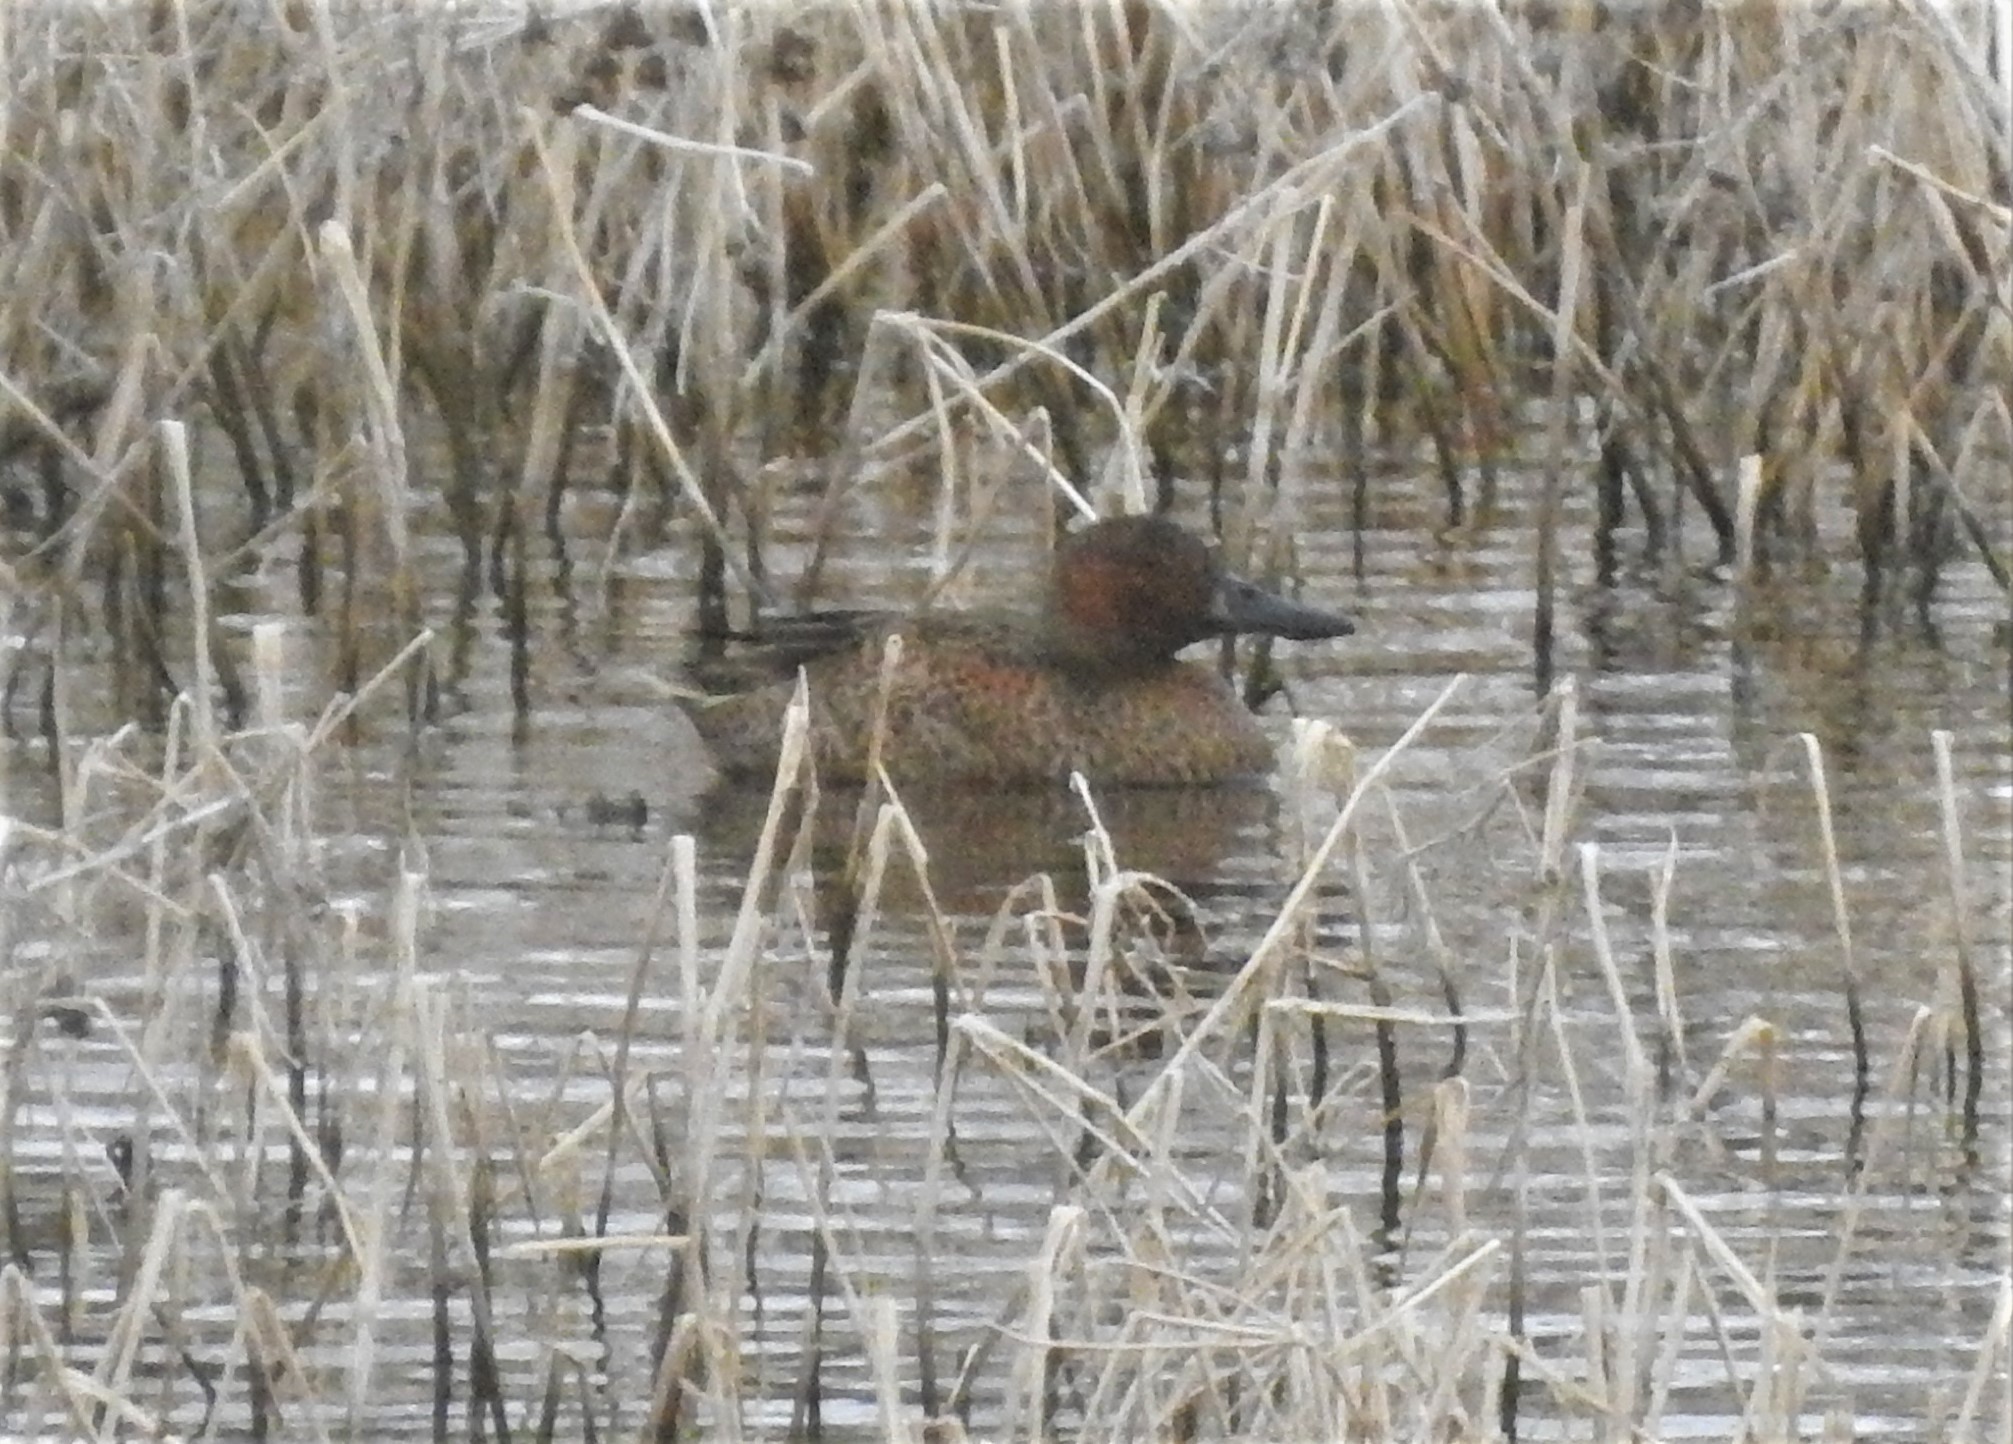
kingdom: Animalia
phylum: Chordata
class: Aves
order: Anseriformes
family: Anatidae
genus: Spatula
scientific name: Spatula cyanoptera
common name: Cinnamon teal
